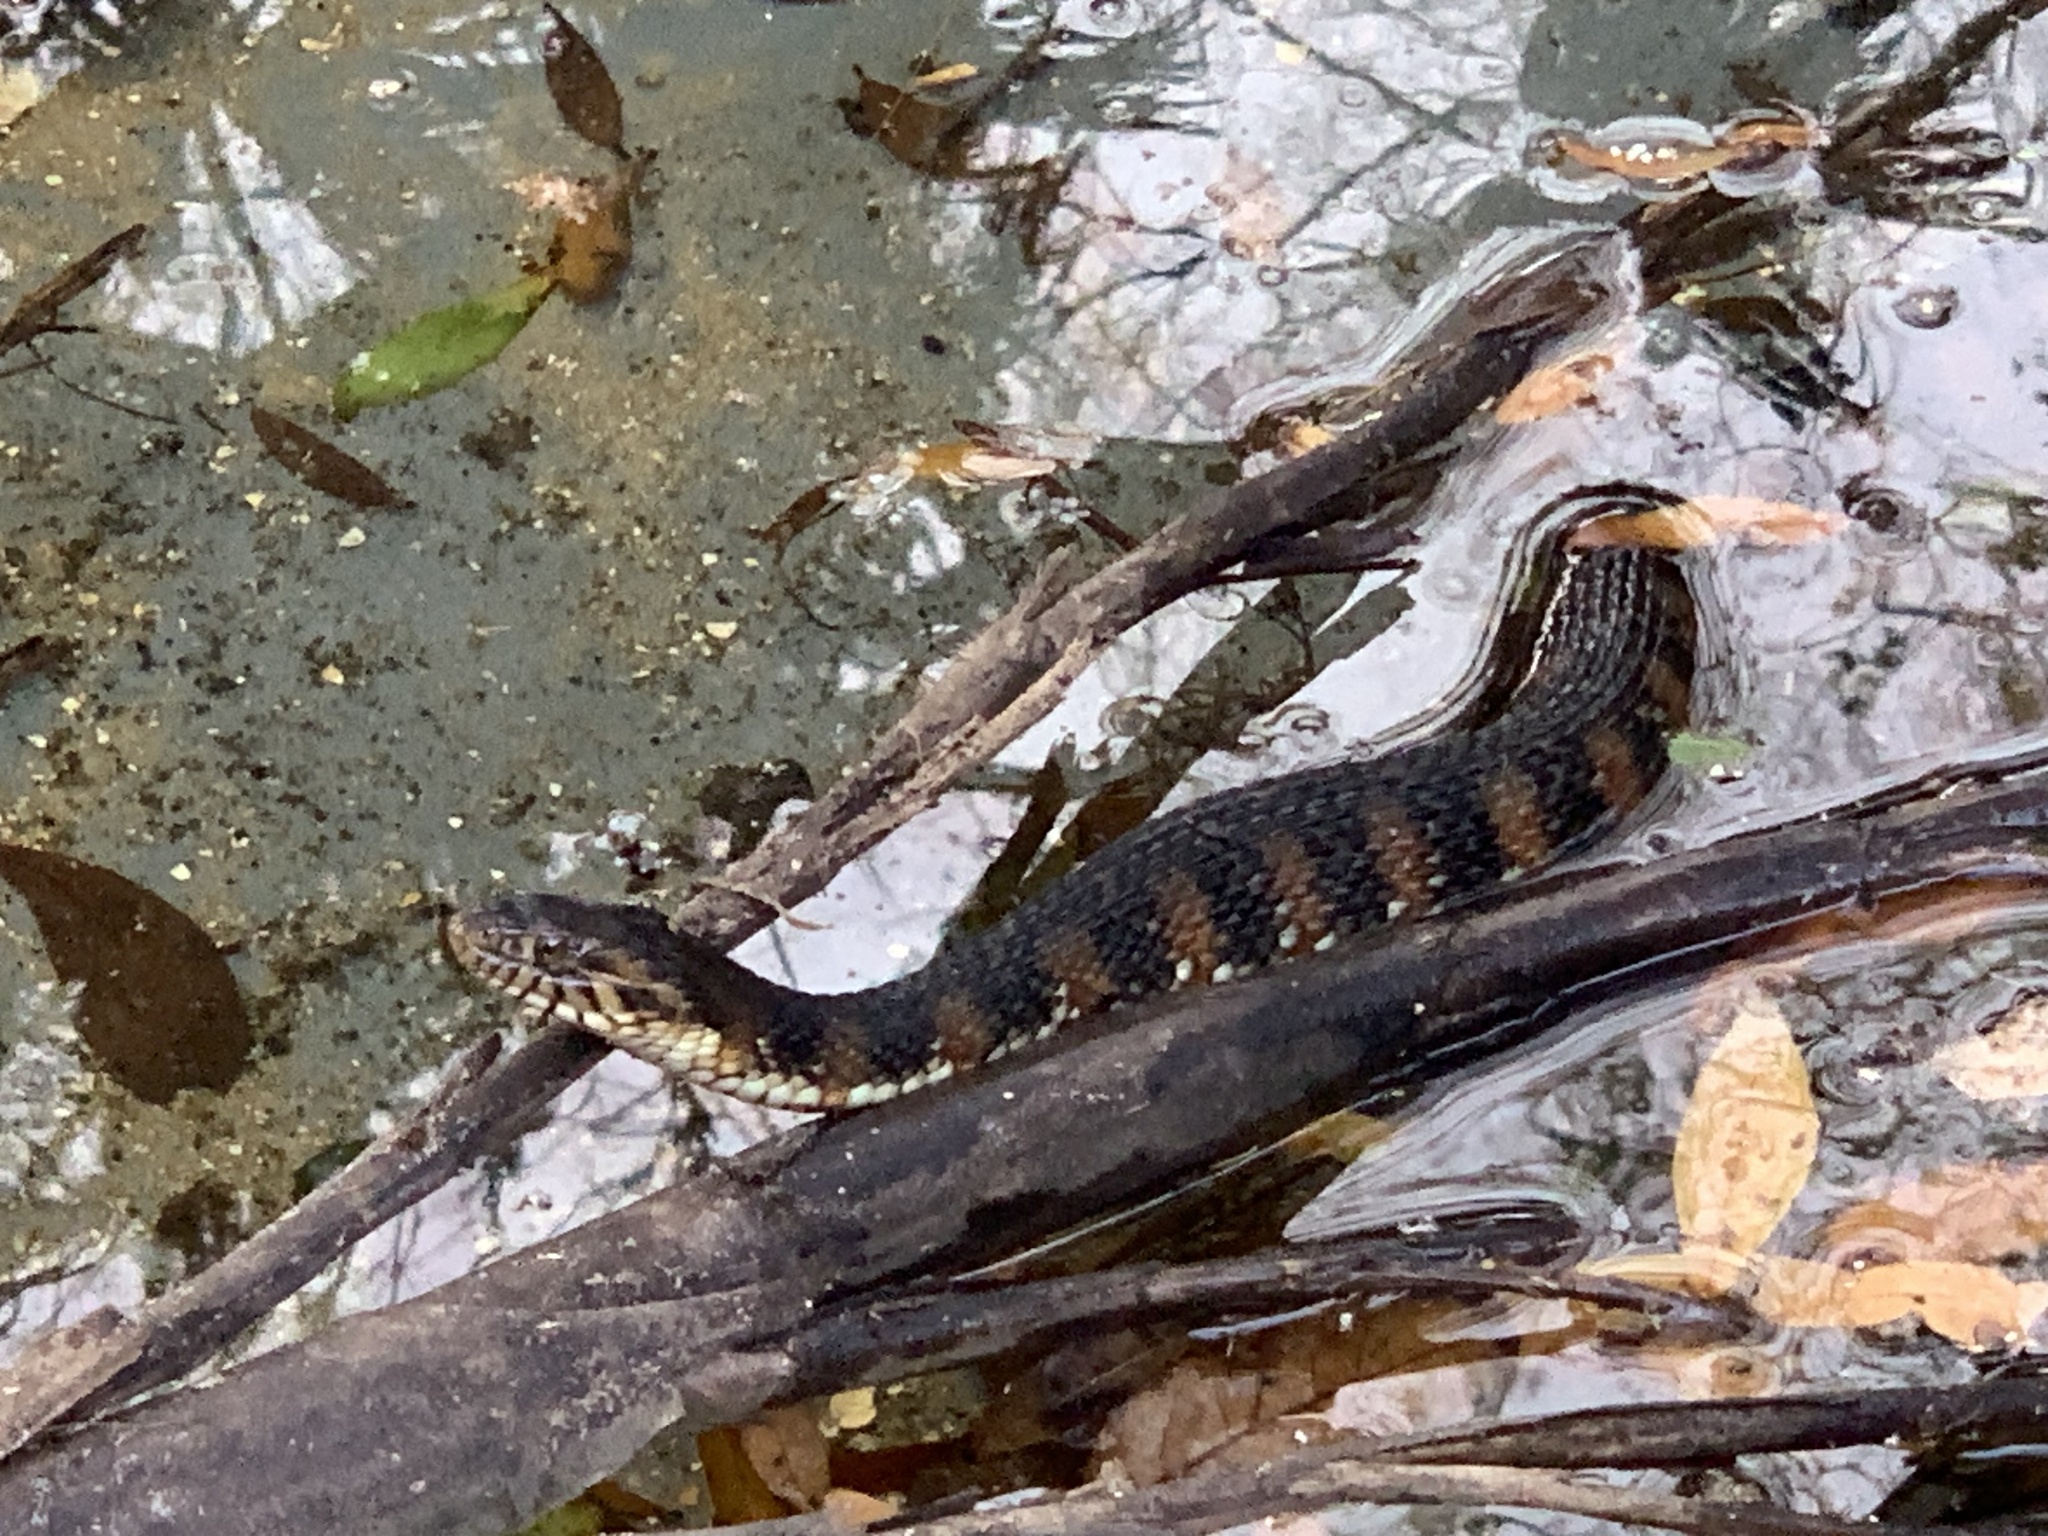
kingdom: Animalia
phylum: Chordata
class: Squamata
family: Colubridae
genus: Nerodia
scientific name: Nerodia fasciata
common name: Southern water snake
